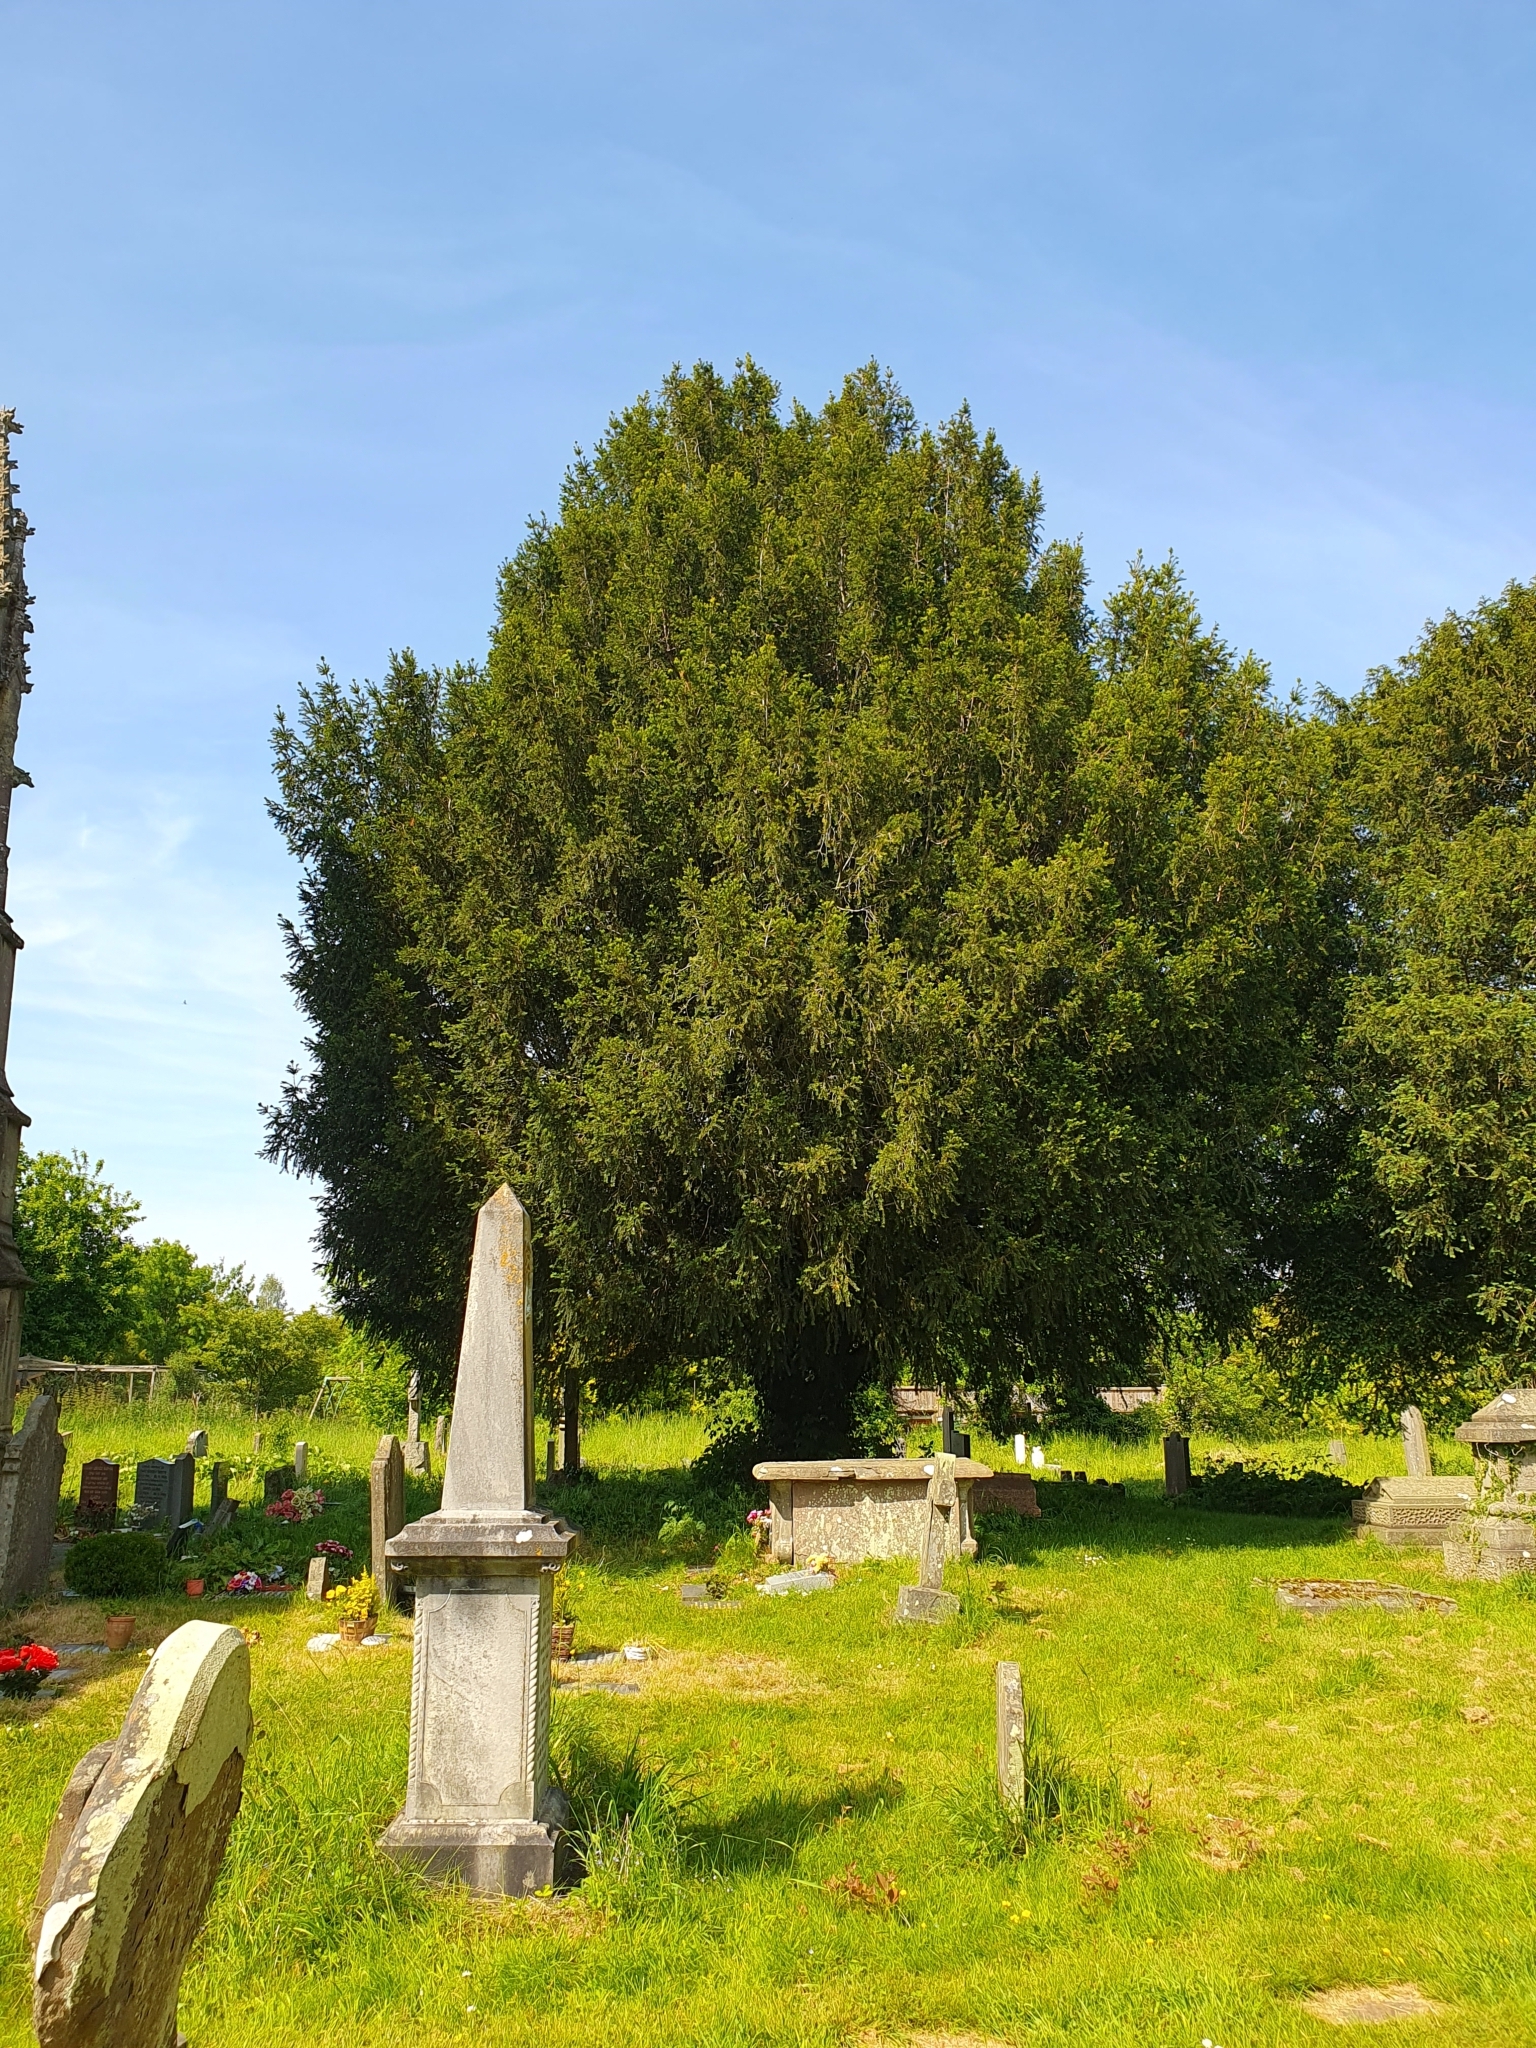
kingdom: Plantae
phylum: Tracheophyta
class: Pinopsida
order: Pinales
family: Taxaceae
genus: Taxus
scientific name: Taxus baccata
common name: Yew
